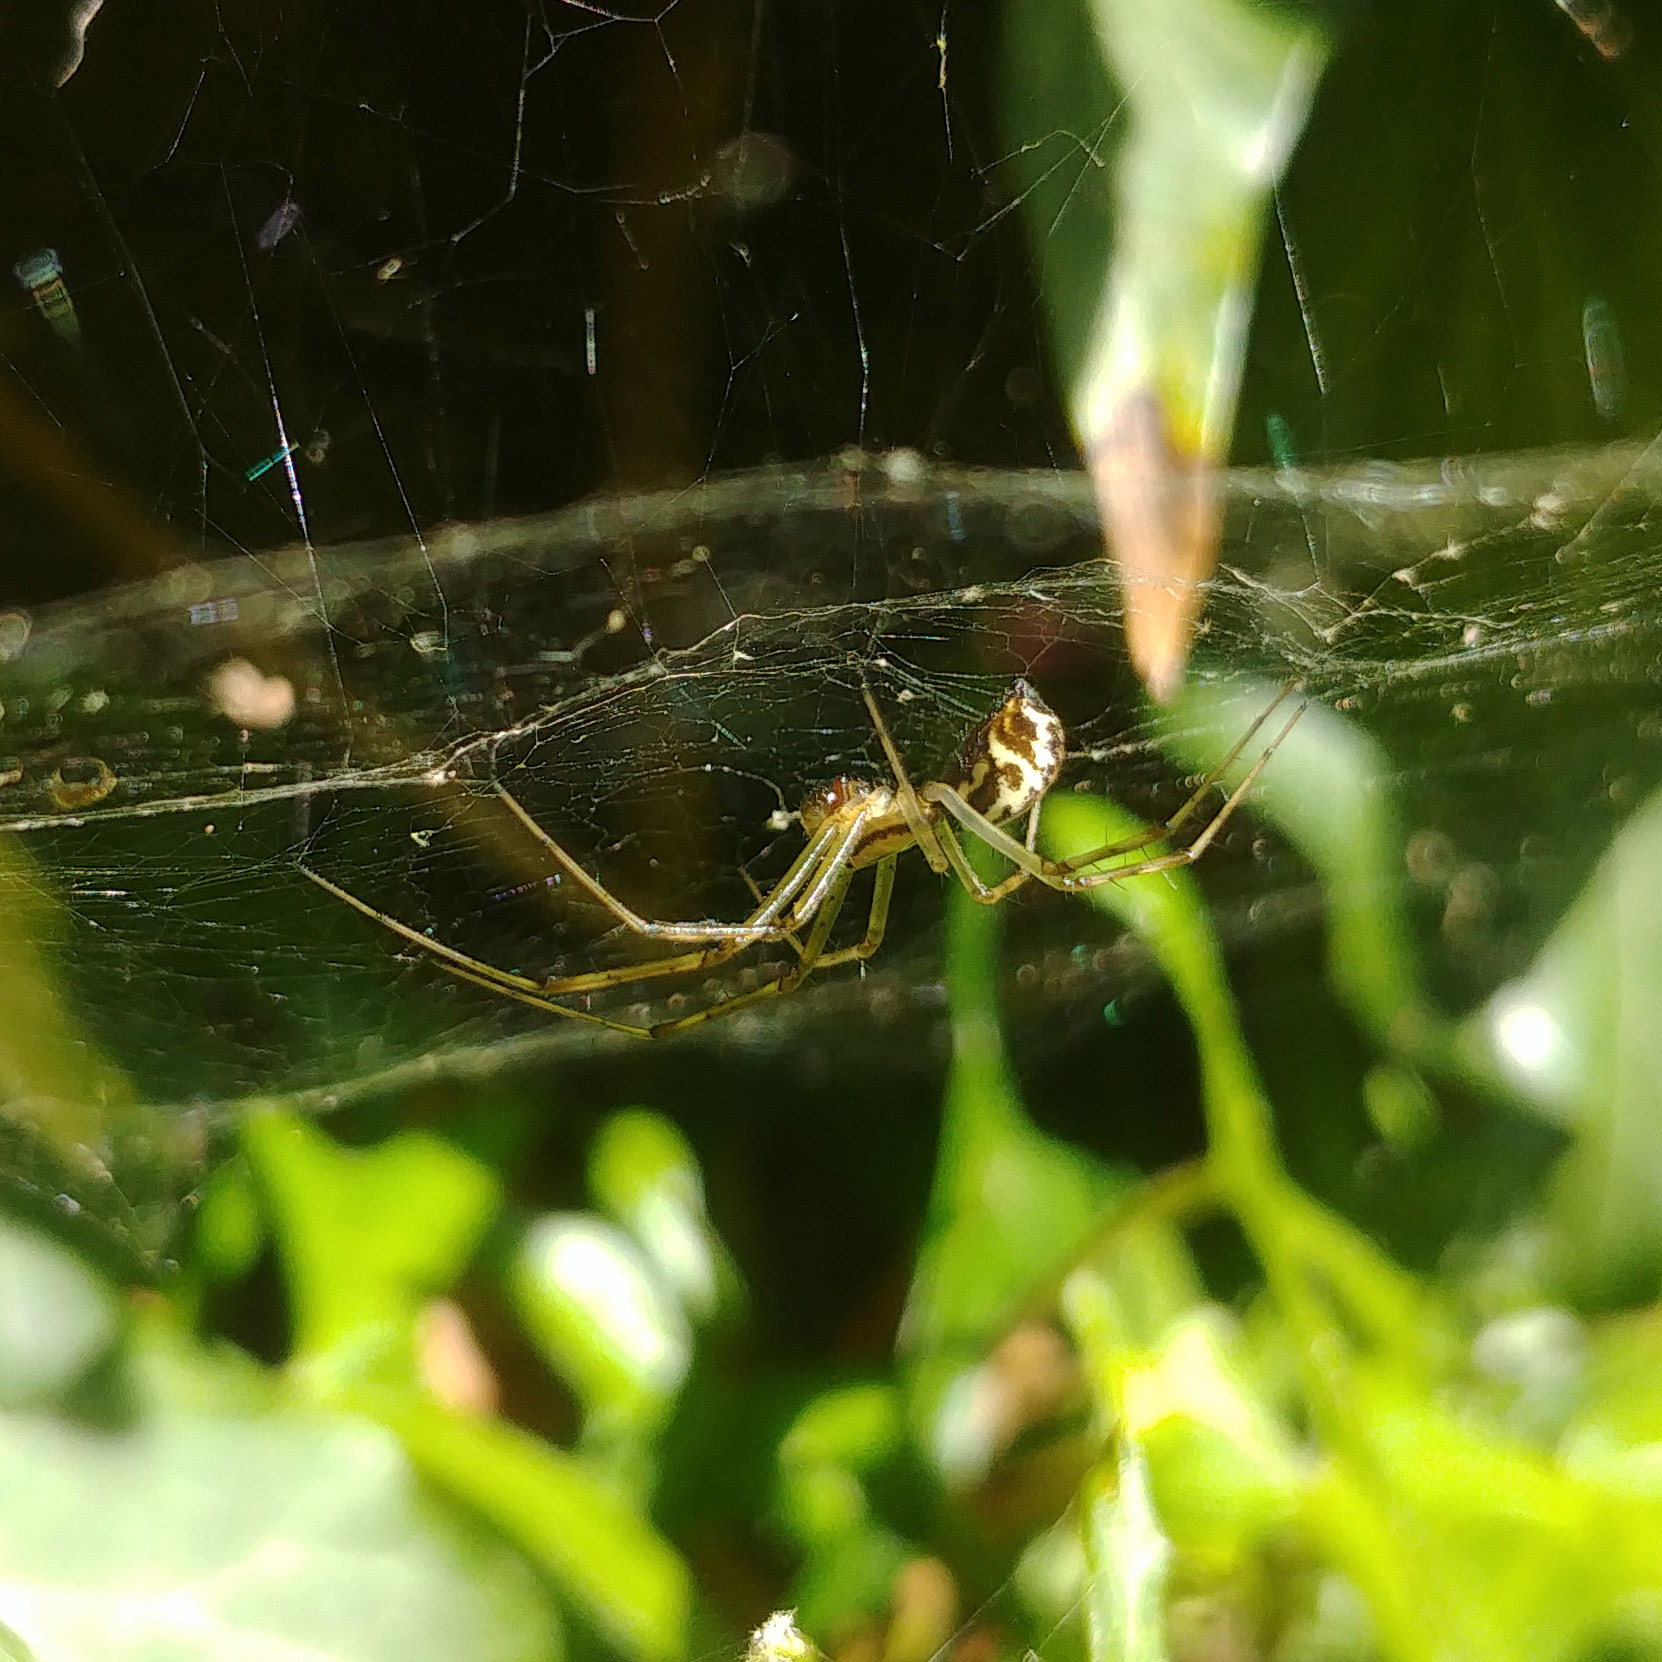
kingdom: Animalia
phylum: Arthropoda
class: Arachnida
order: Araneae
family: Linyphiidae
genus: Linyphia
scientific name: Linyphia triangularis
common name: Money spider
